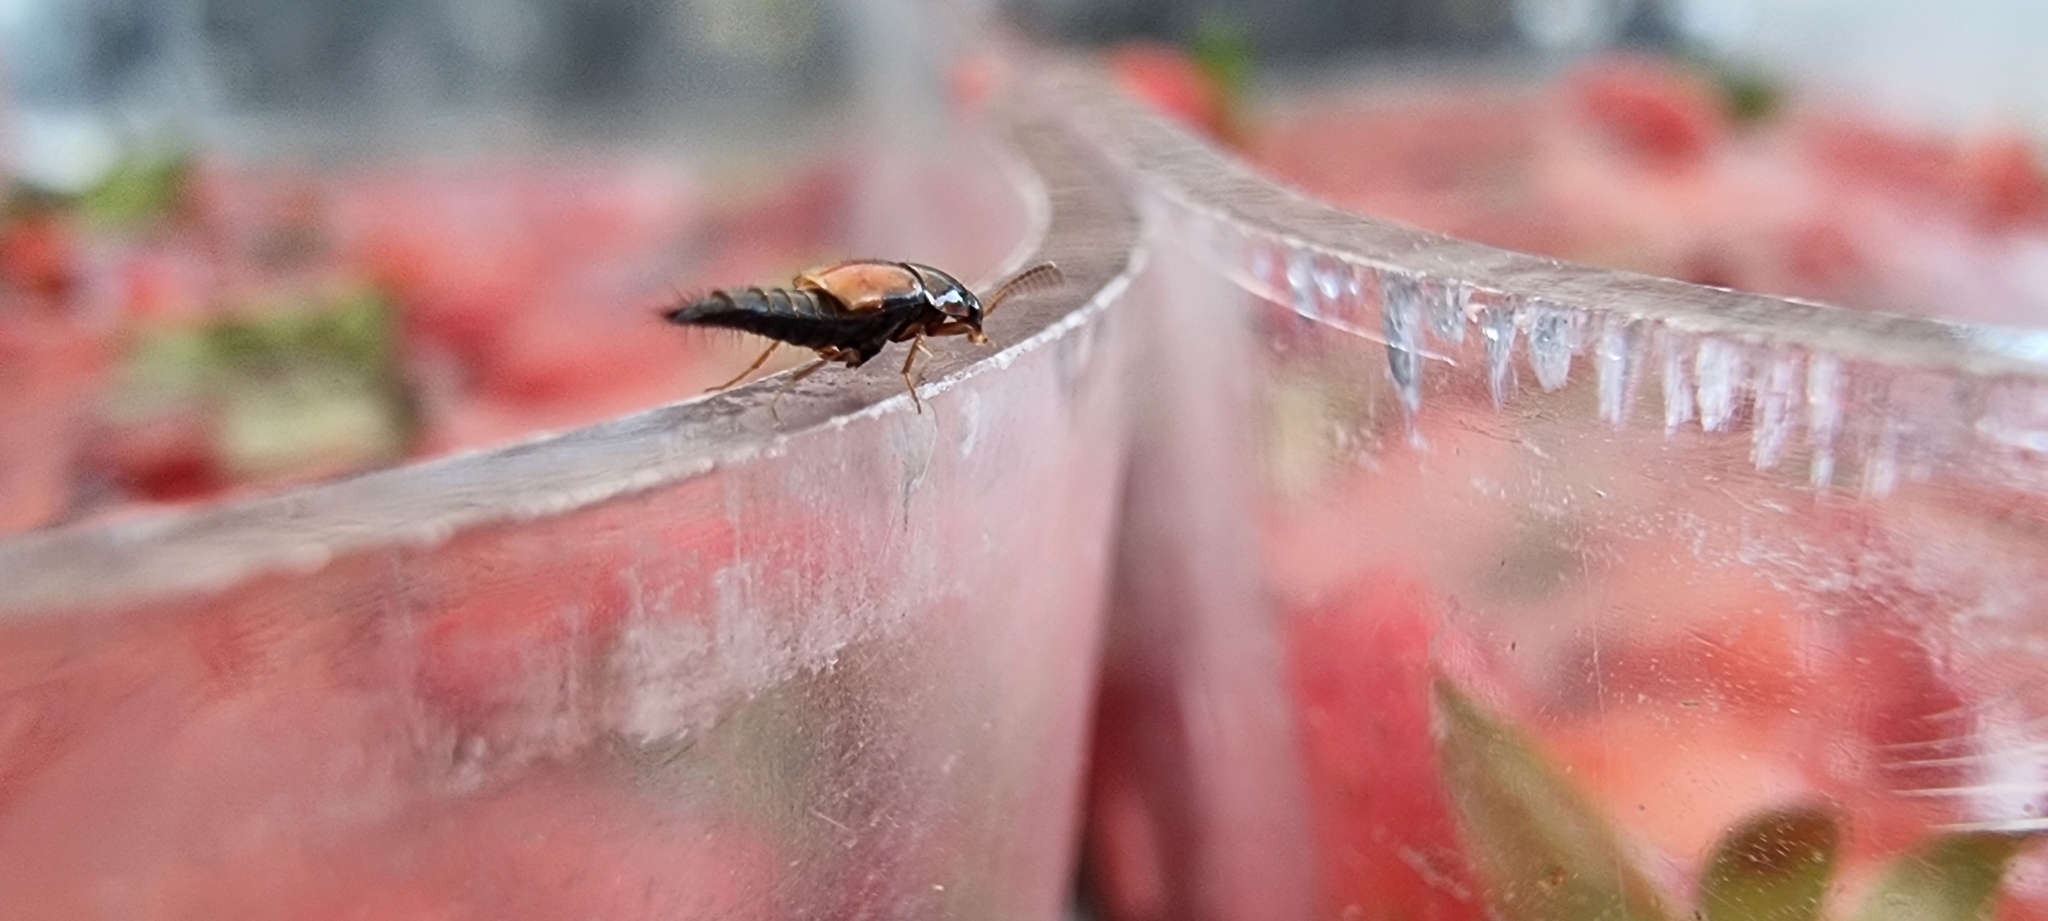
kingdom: Animalia
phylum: Arthropoda
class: Insecta
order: Coleoptera
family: Staphylinidae
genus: Tachyporus
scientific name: Tachyporus hypnorum
